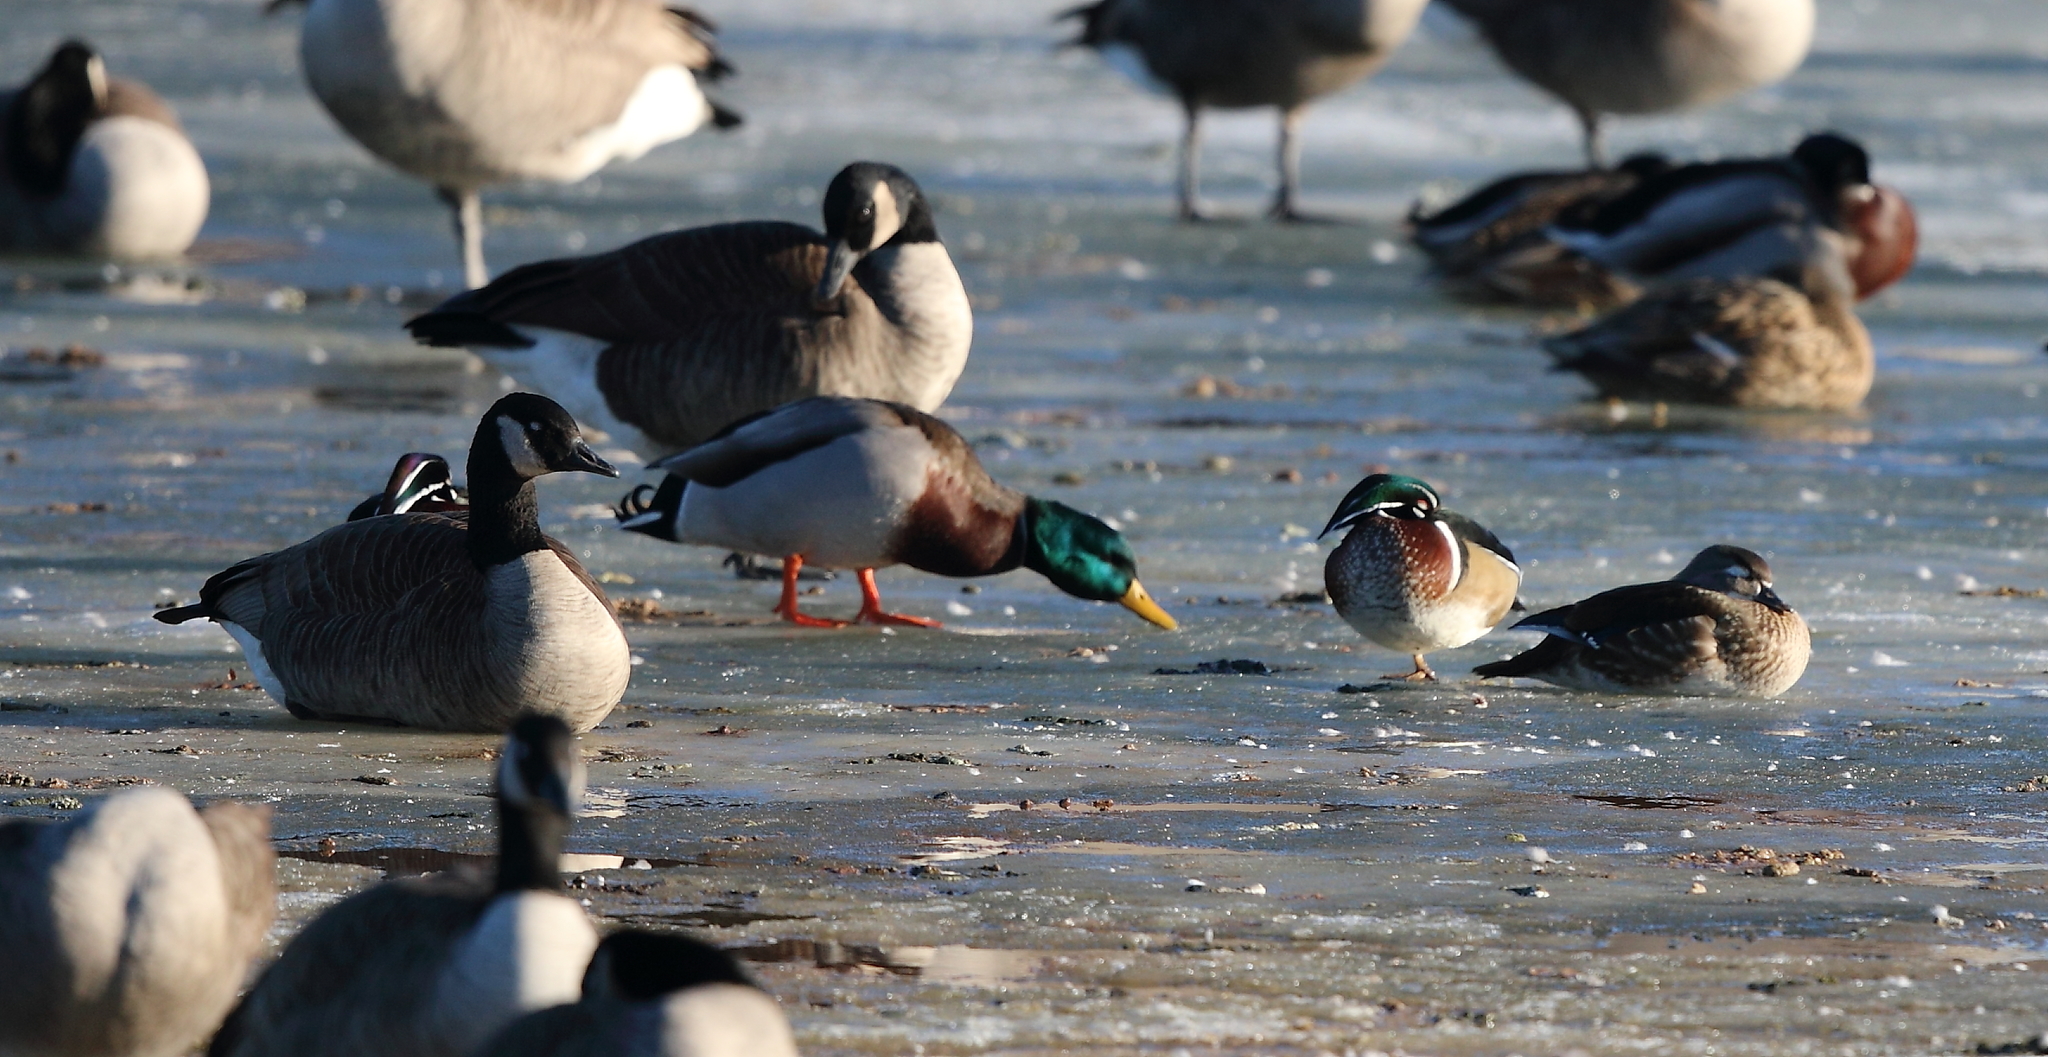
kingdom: Animalia
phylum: Chordata
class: Aves
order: Anseriformes
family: Anatidae
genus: Aix
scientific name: Aix sponsa
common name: Wood duck
